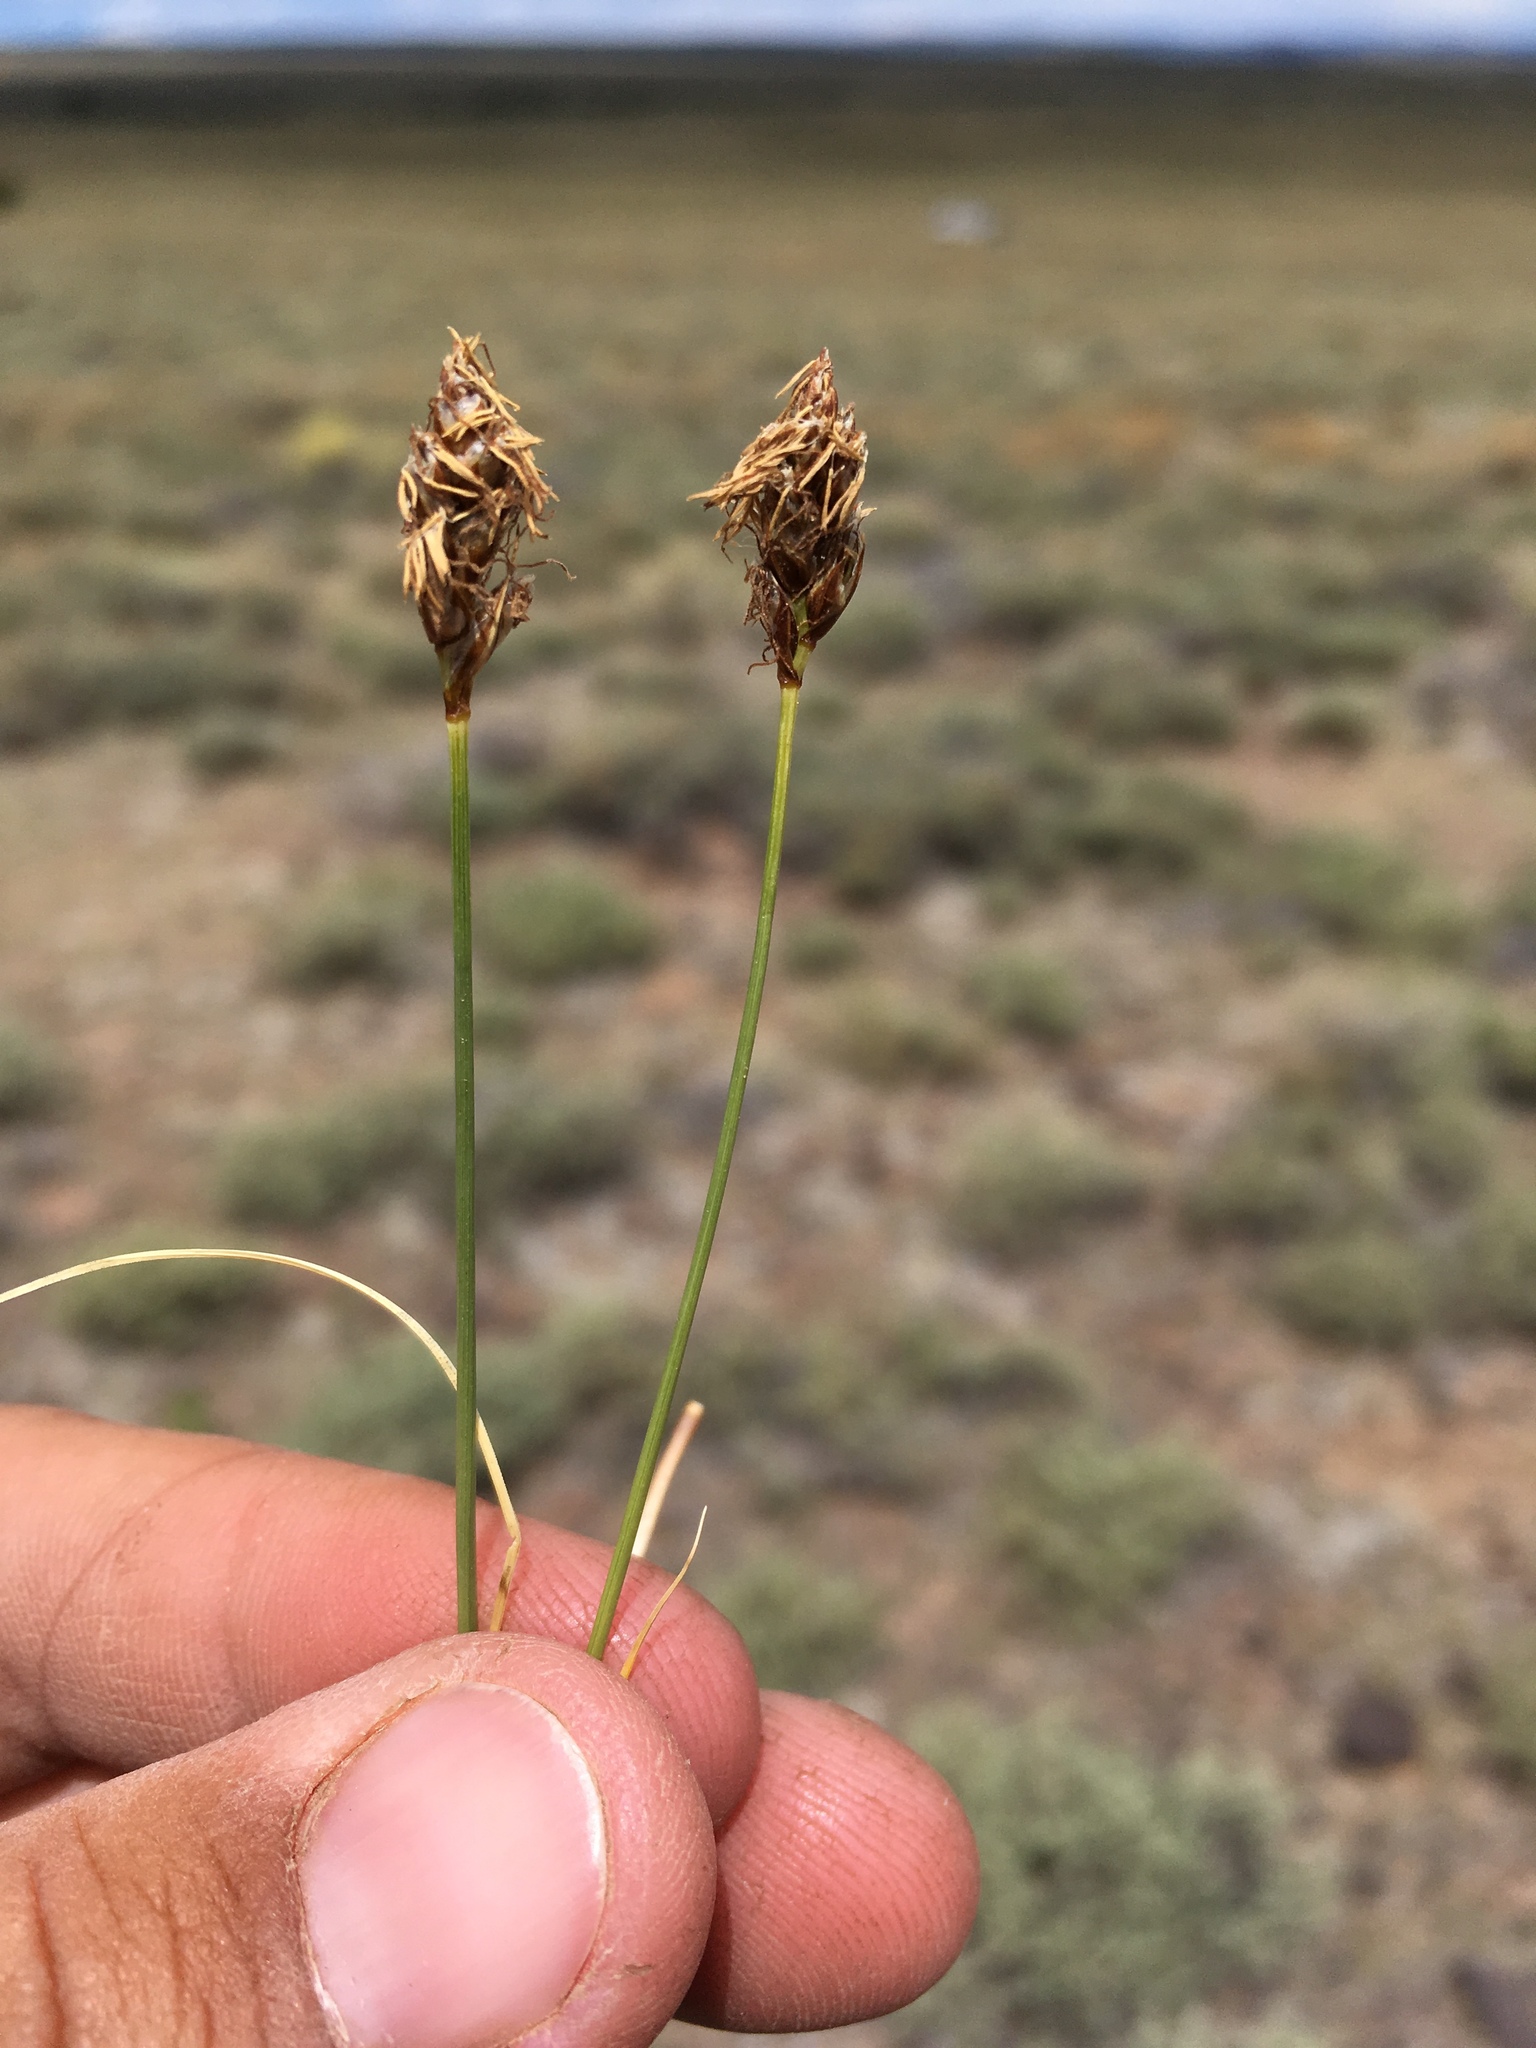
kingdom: Plantae
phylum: Tracheophyta
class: Liliopsida
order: Poales
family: Cyperaceae
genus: Carex
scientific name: Carex duriuscula
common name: Involute-leaved sedge
